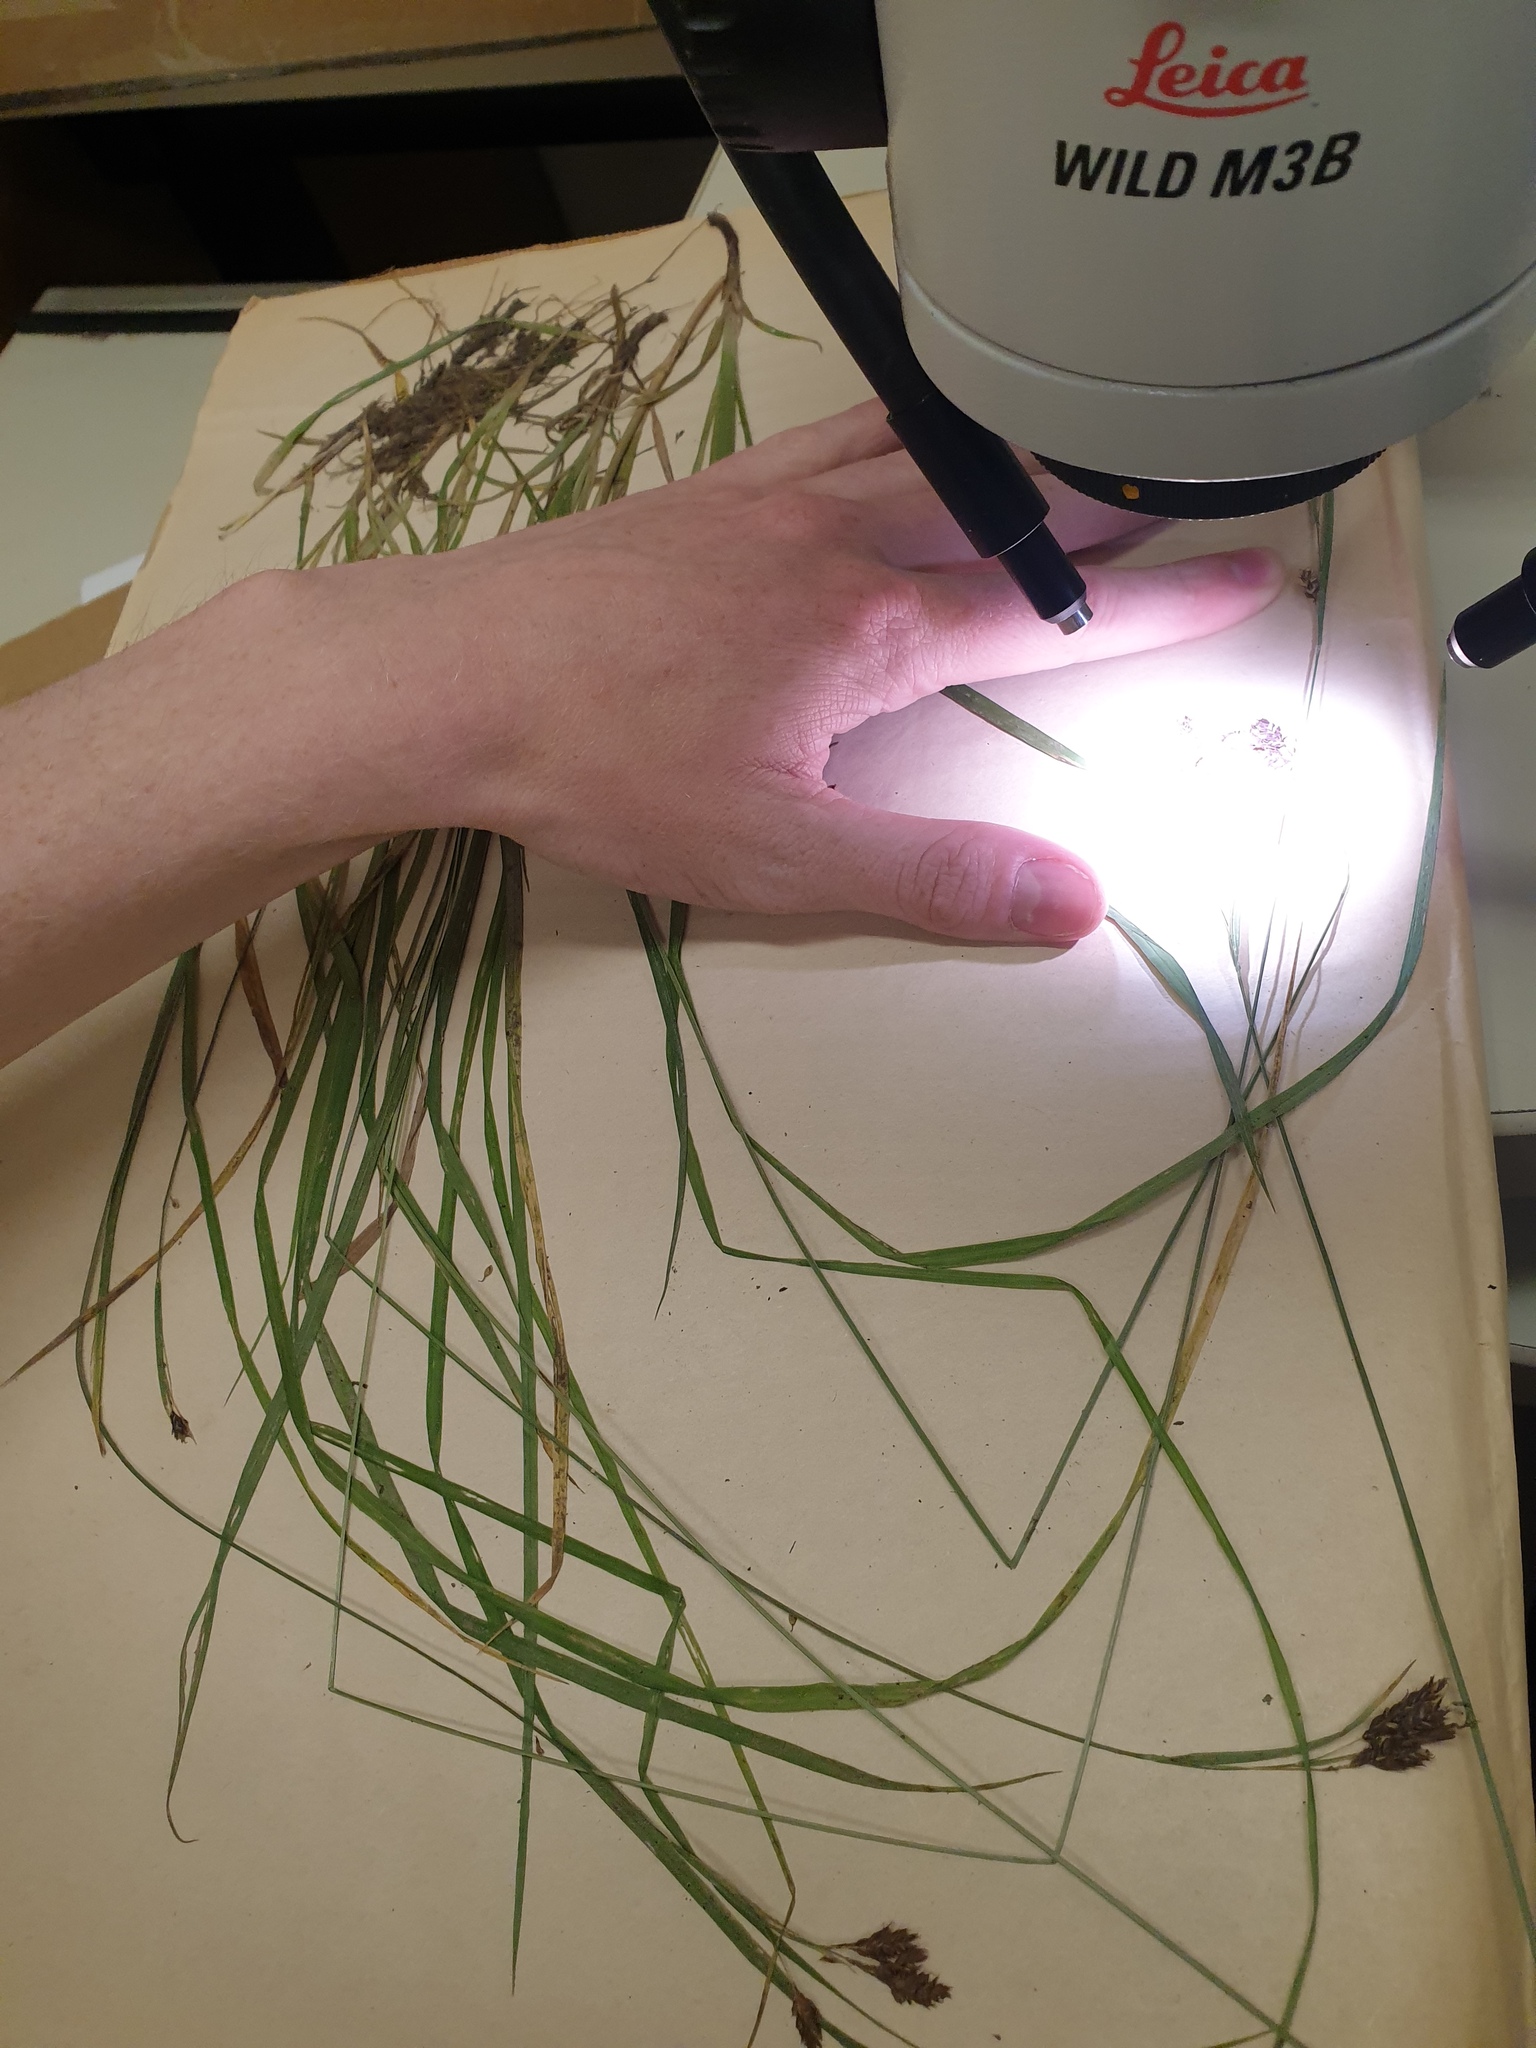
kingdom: Plantae
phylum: Tracheophyta
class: Liliopsida
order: Poales
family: Cyperaceae
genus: Carex
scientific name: Carex atratiformis
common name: Black sedge
